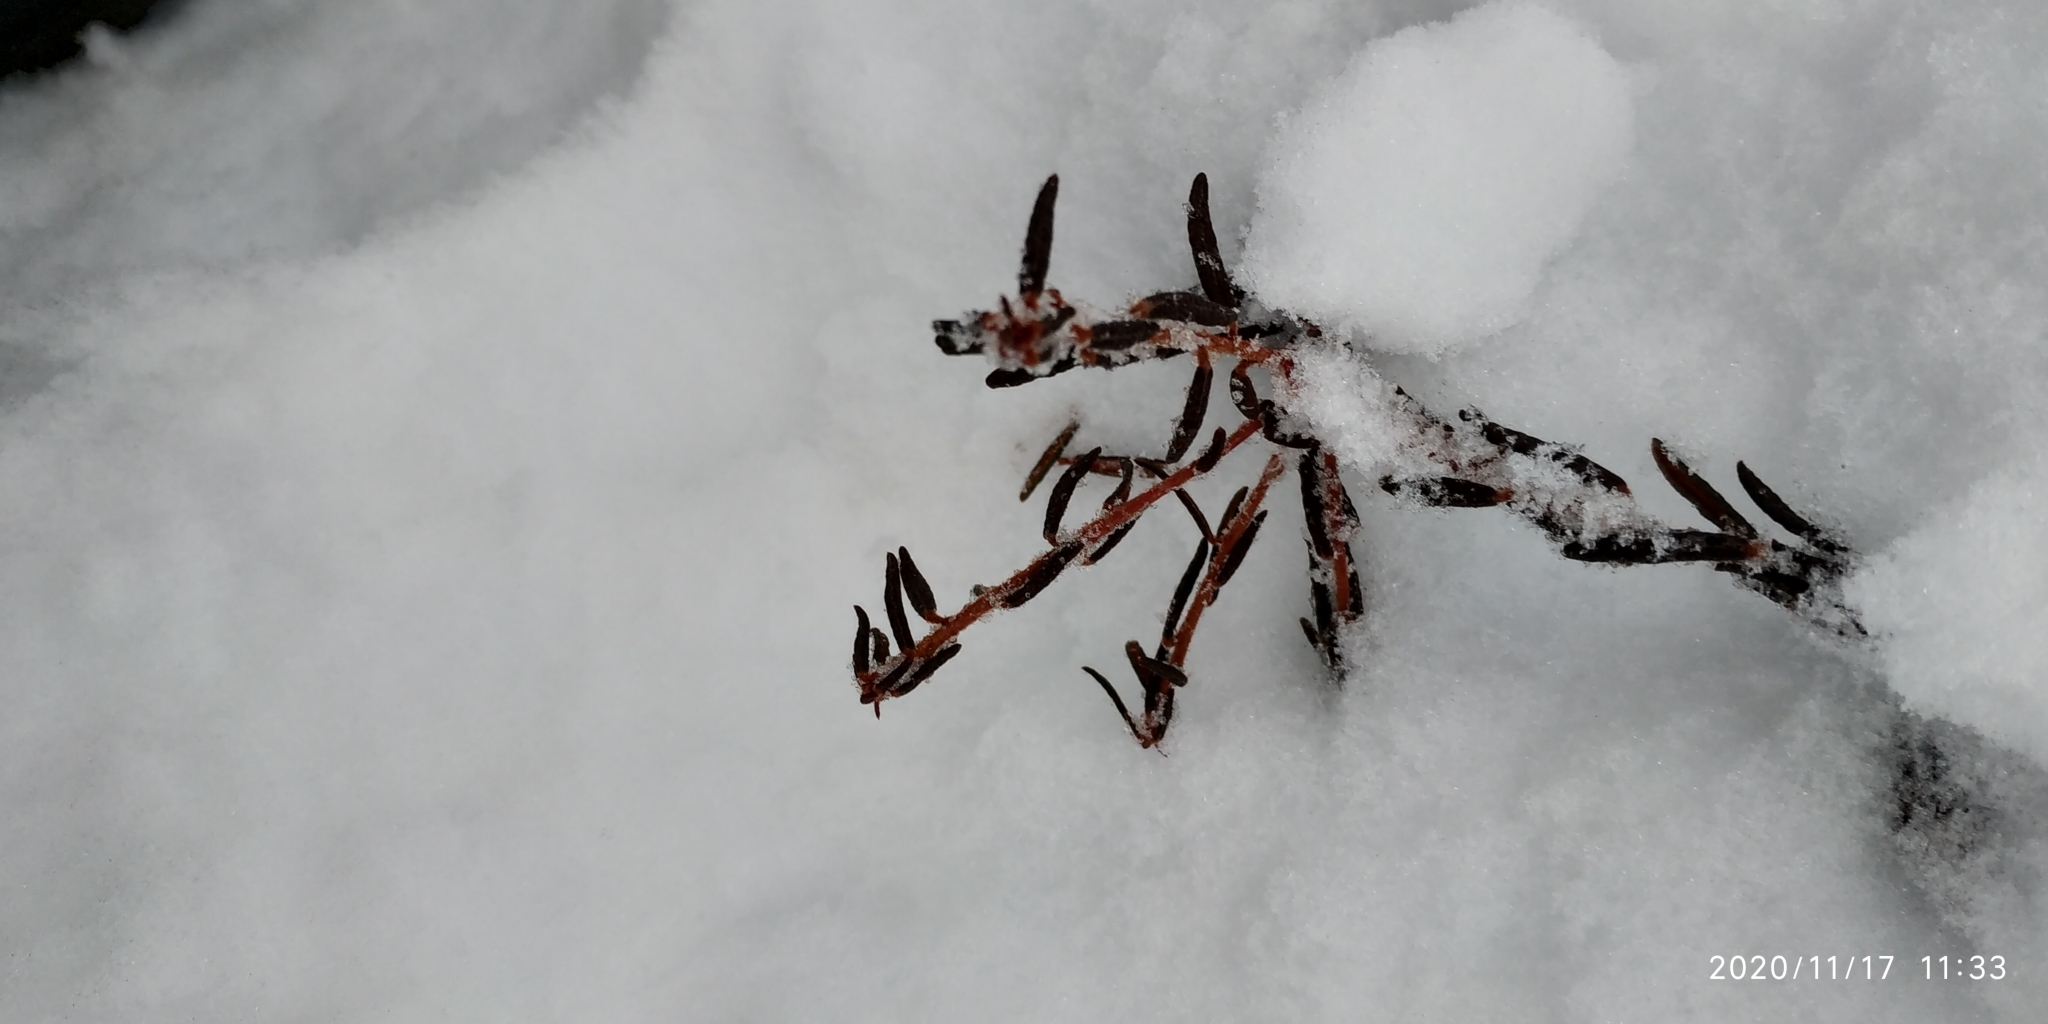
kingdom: Plantae
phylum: Tracheophyta
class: Magnoliopsida
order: Ericales
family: Ericaceae
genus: Rhododendron
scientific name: Rhododendron tomentosum
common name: Marsh labrador tea
